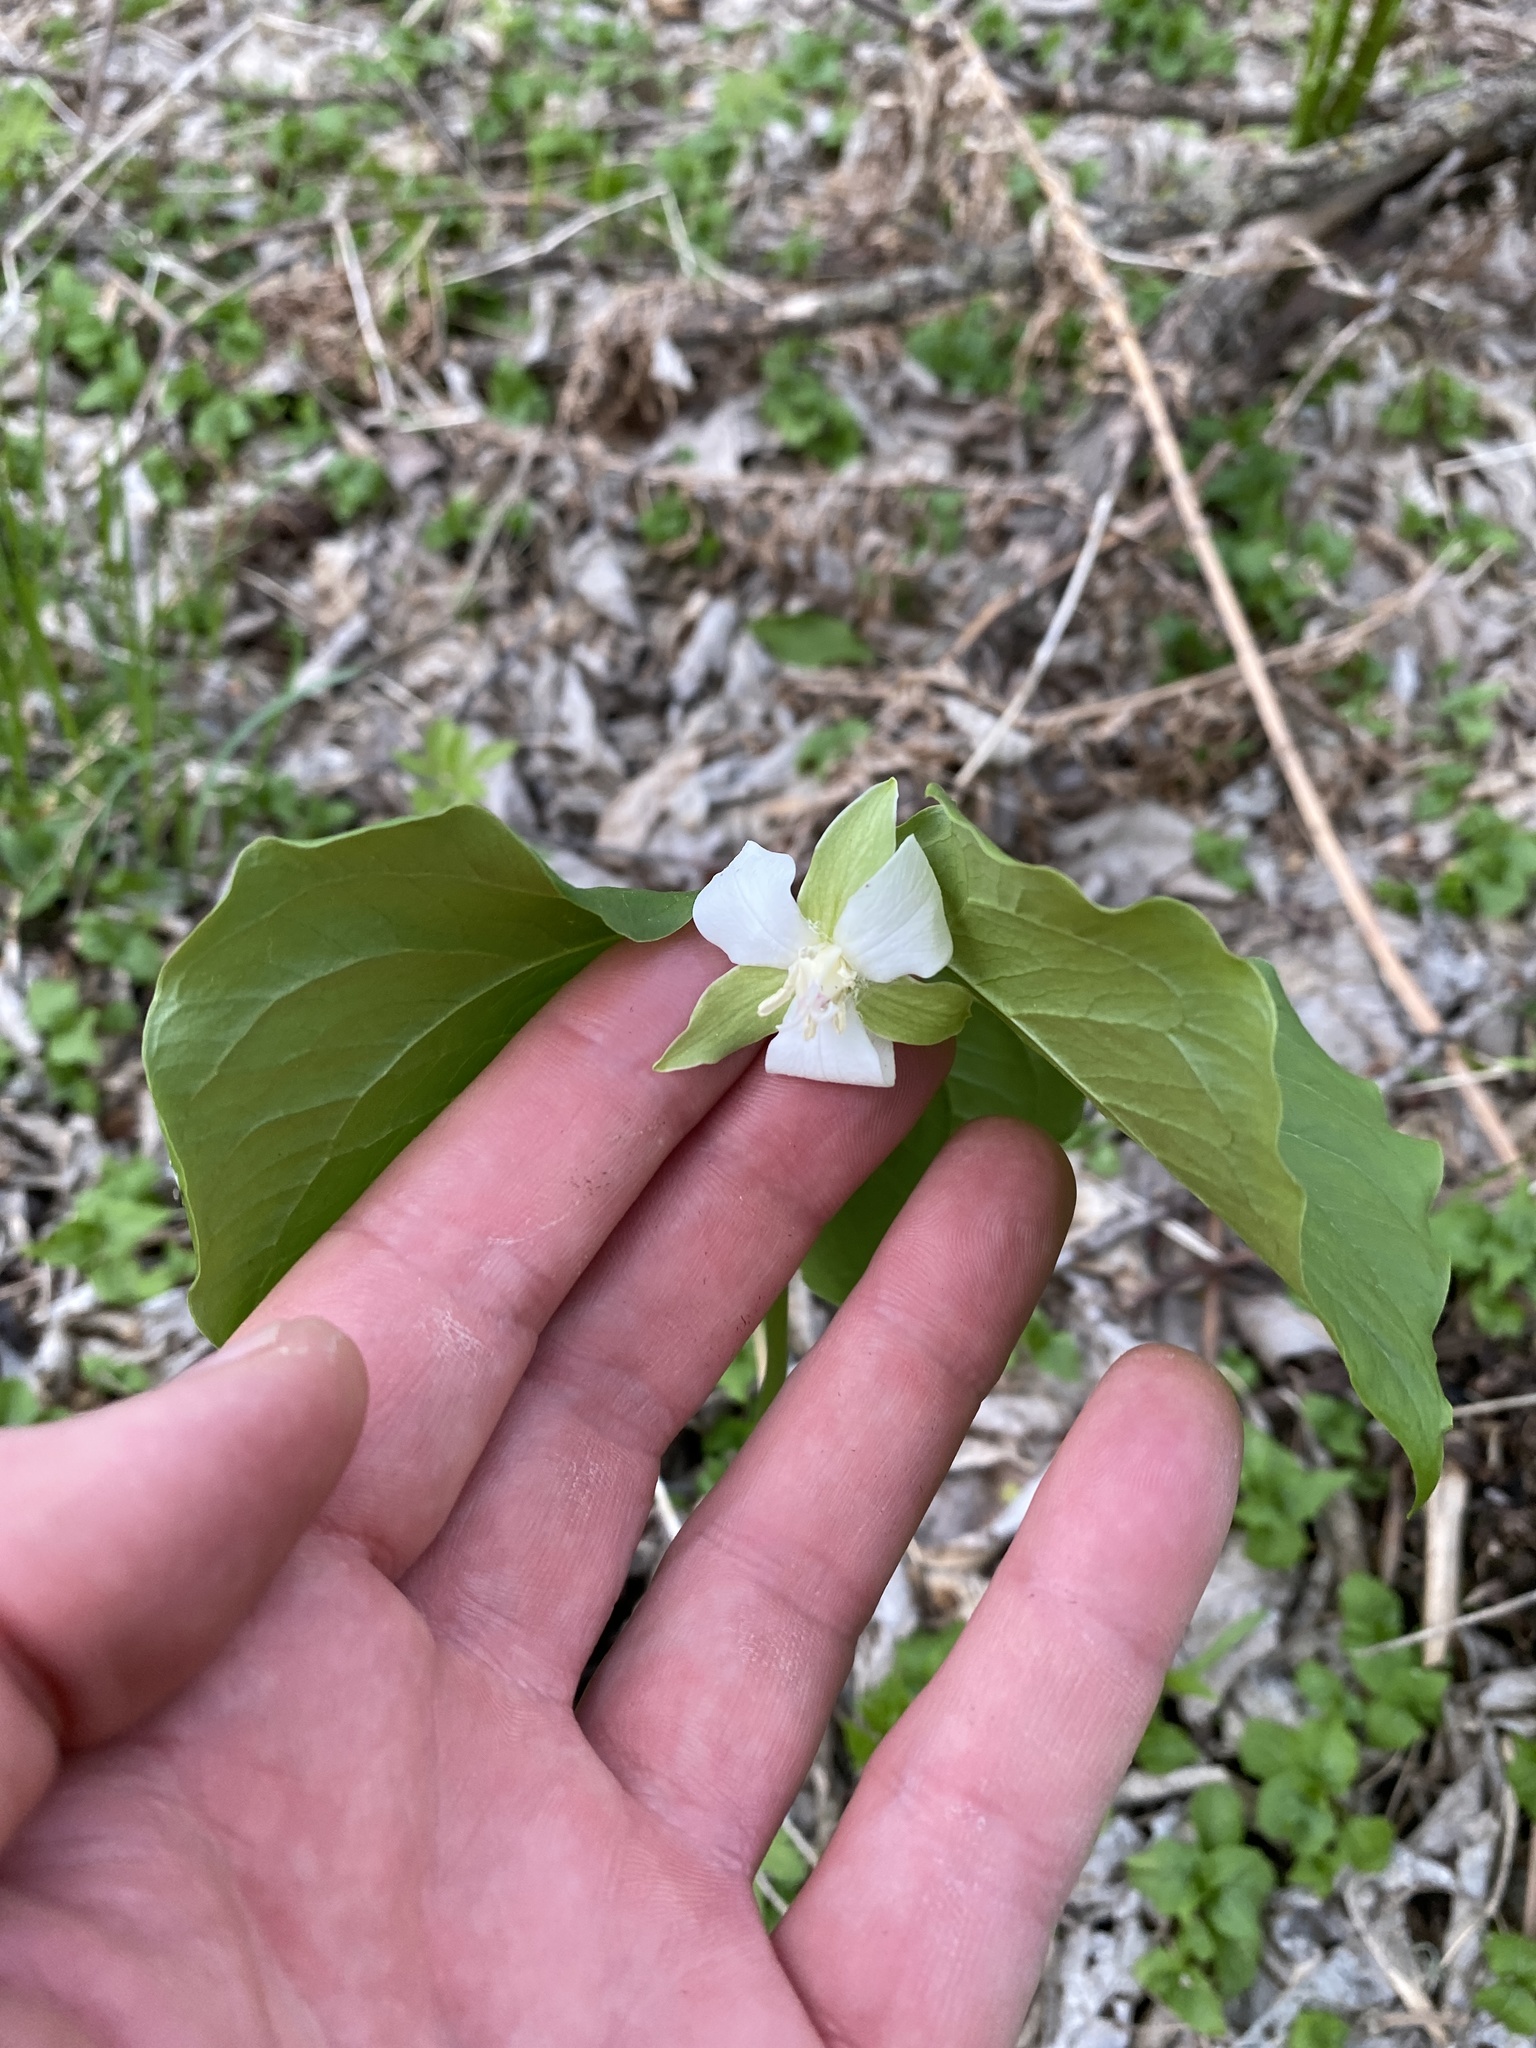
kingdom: Plantae
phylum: Tracheophyta
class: Liliopsida
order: Liliales
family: Melanthiaceae
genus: Trillium
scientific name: Trillium cernuum
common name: Nodding trillium
